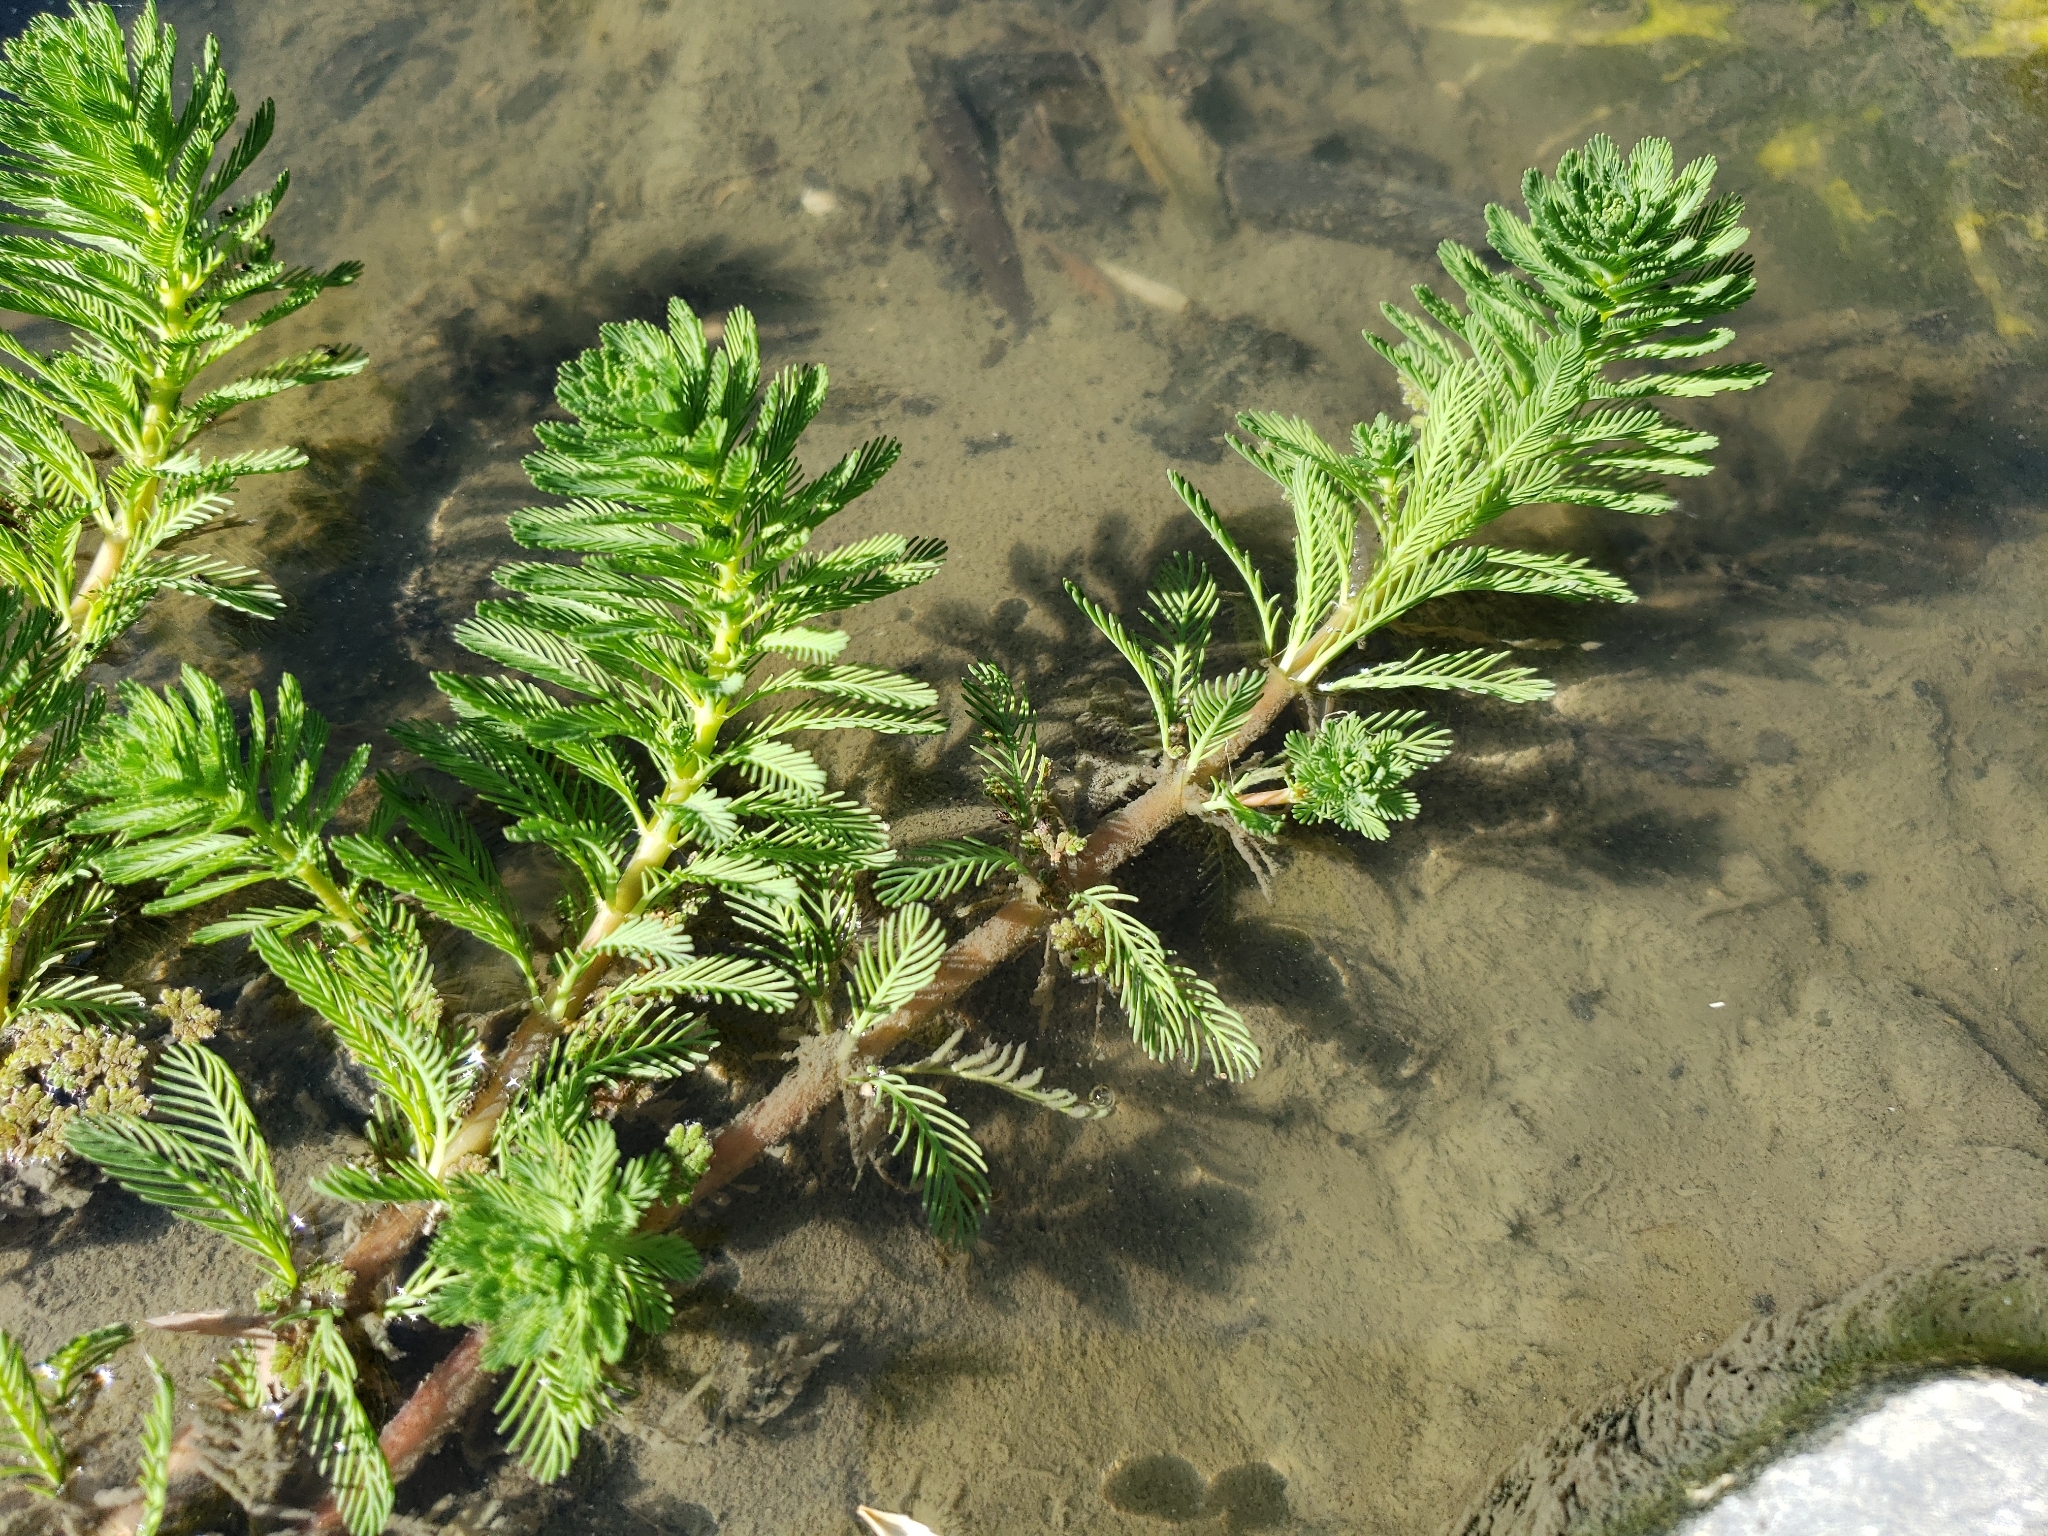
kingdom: Plantae
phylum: Tracheophyta
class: Magnoliopsida
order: Saxifragales
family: Haloragaceae
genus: Myriophyllum
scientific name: Myriophyllum aquaticum
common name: Parrot's feather
